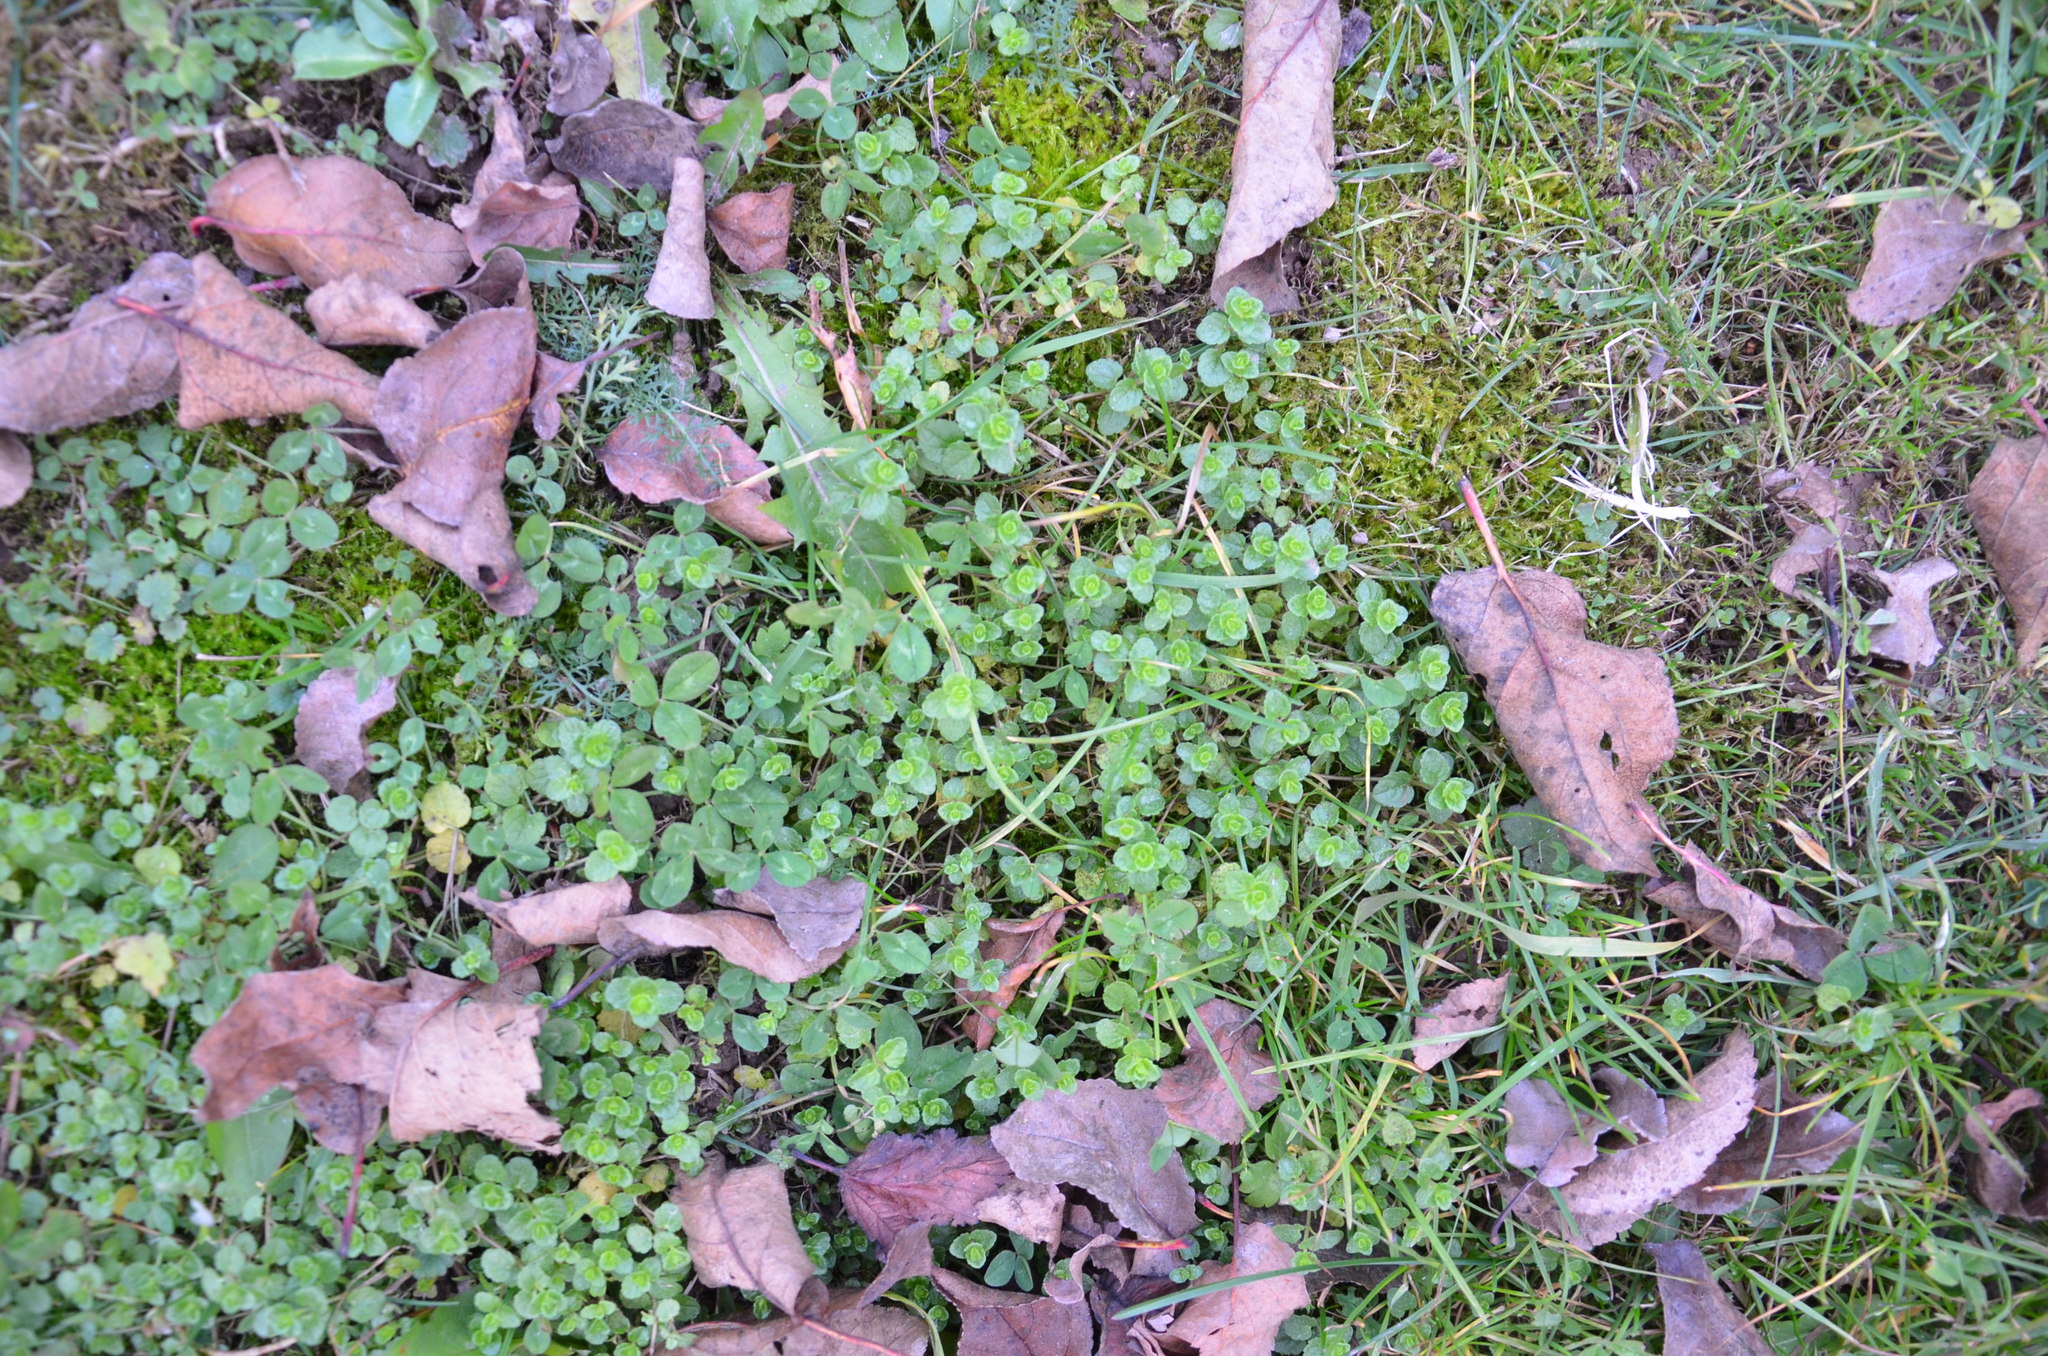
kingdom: Plantae
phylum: Tracheophyta
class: Magnoliopsida
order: Lamiales
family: Plantaginaceae
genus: Veronica
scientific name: Veronica filiformis
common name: Slender speedwell
